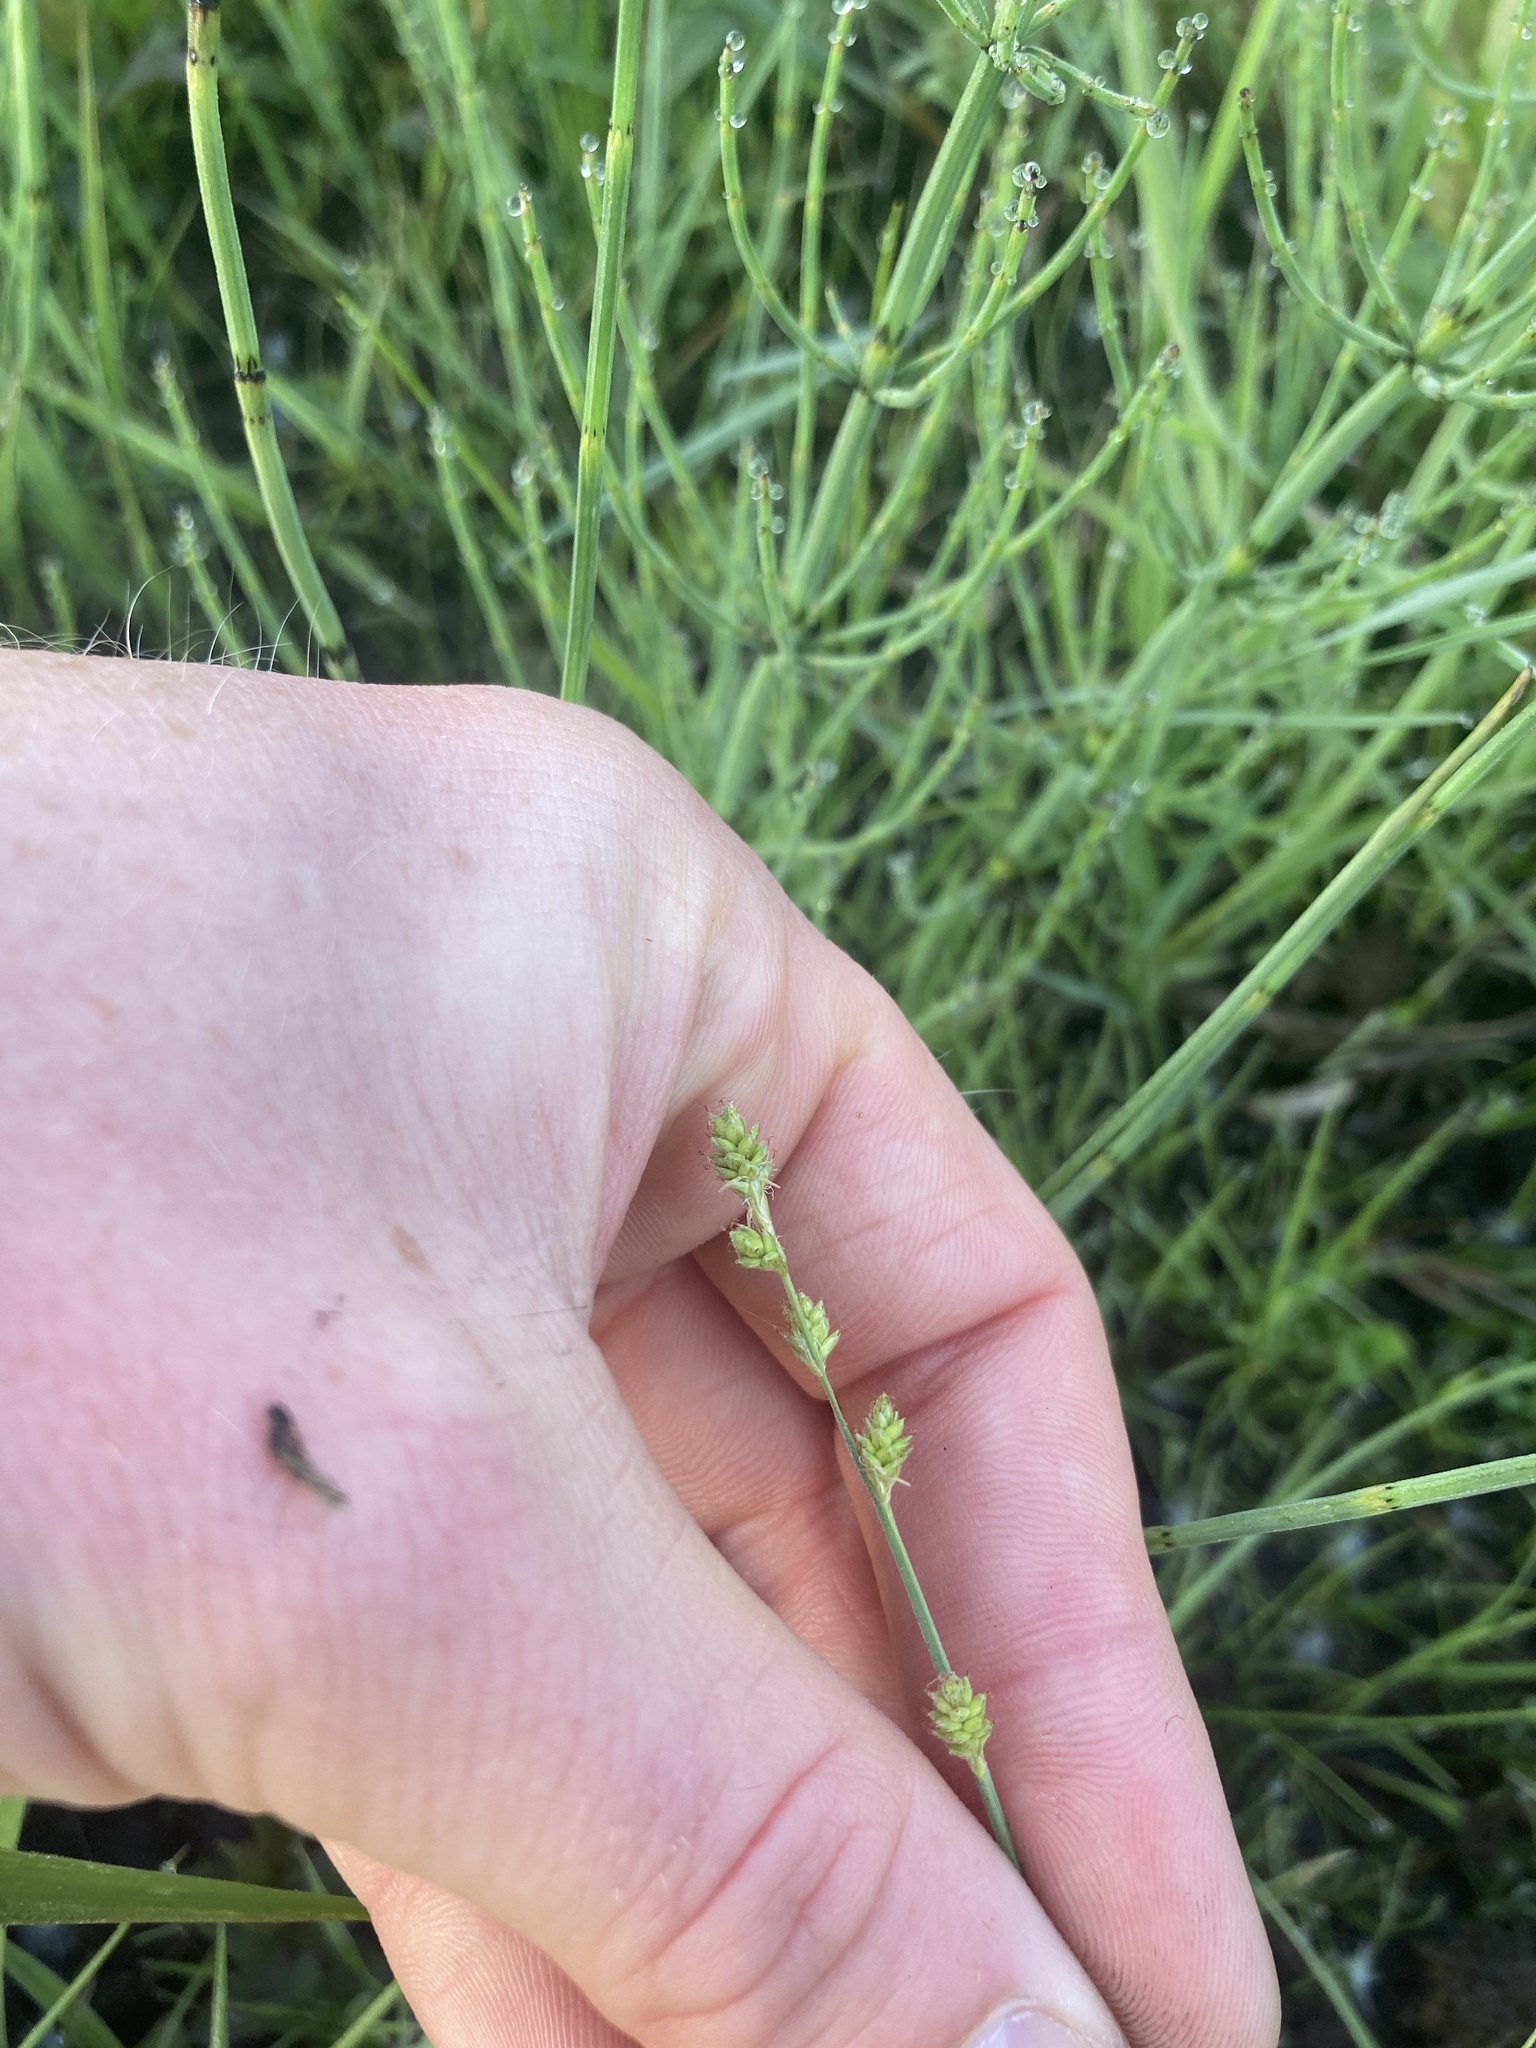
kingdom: Plantae
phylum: Tracheophyta
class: Liliopsida
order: Poales
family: Cyperaceae
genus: Carex
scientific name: Carex canescens
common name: White sedge
